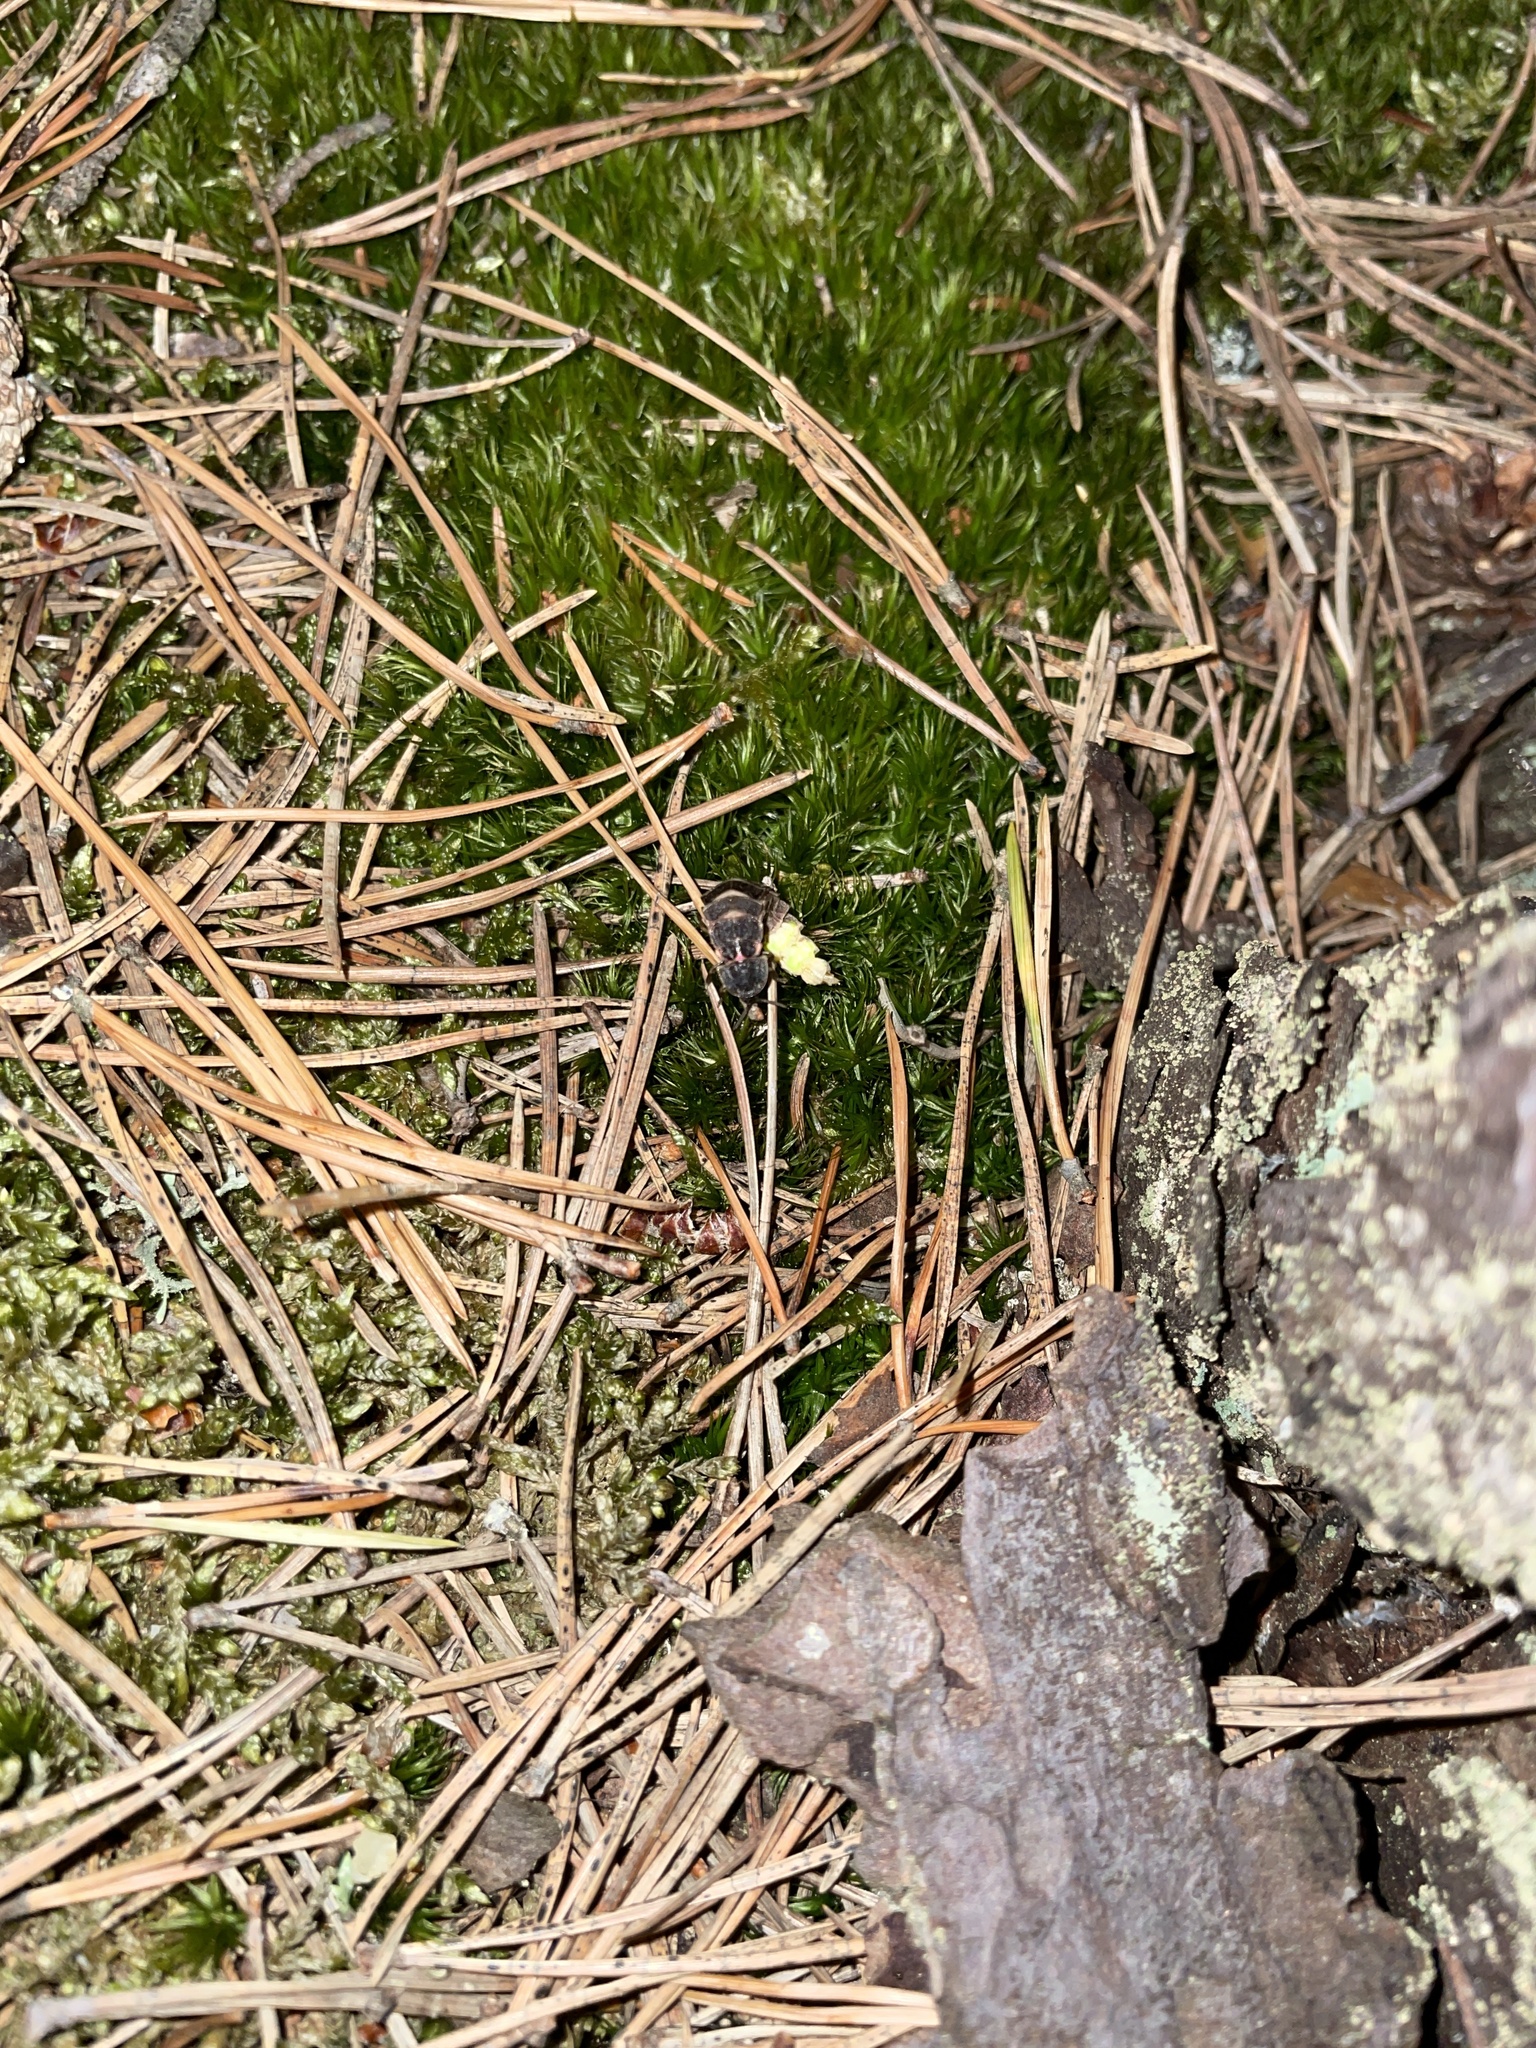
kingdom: Animalia
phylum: Arthropoda
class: Insecta
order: Coleoptera
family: Lampyridae
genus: Lampyris
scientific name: Lampyris noctiluca
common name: Glow-worm
